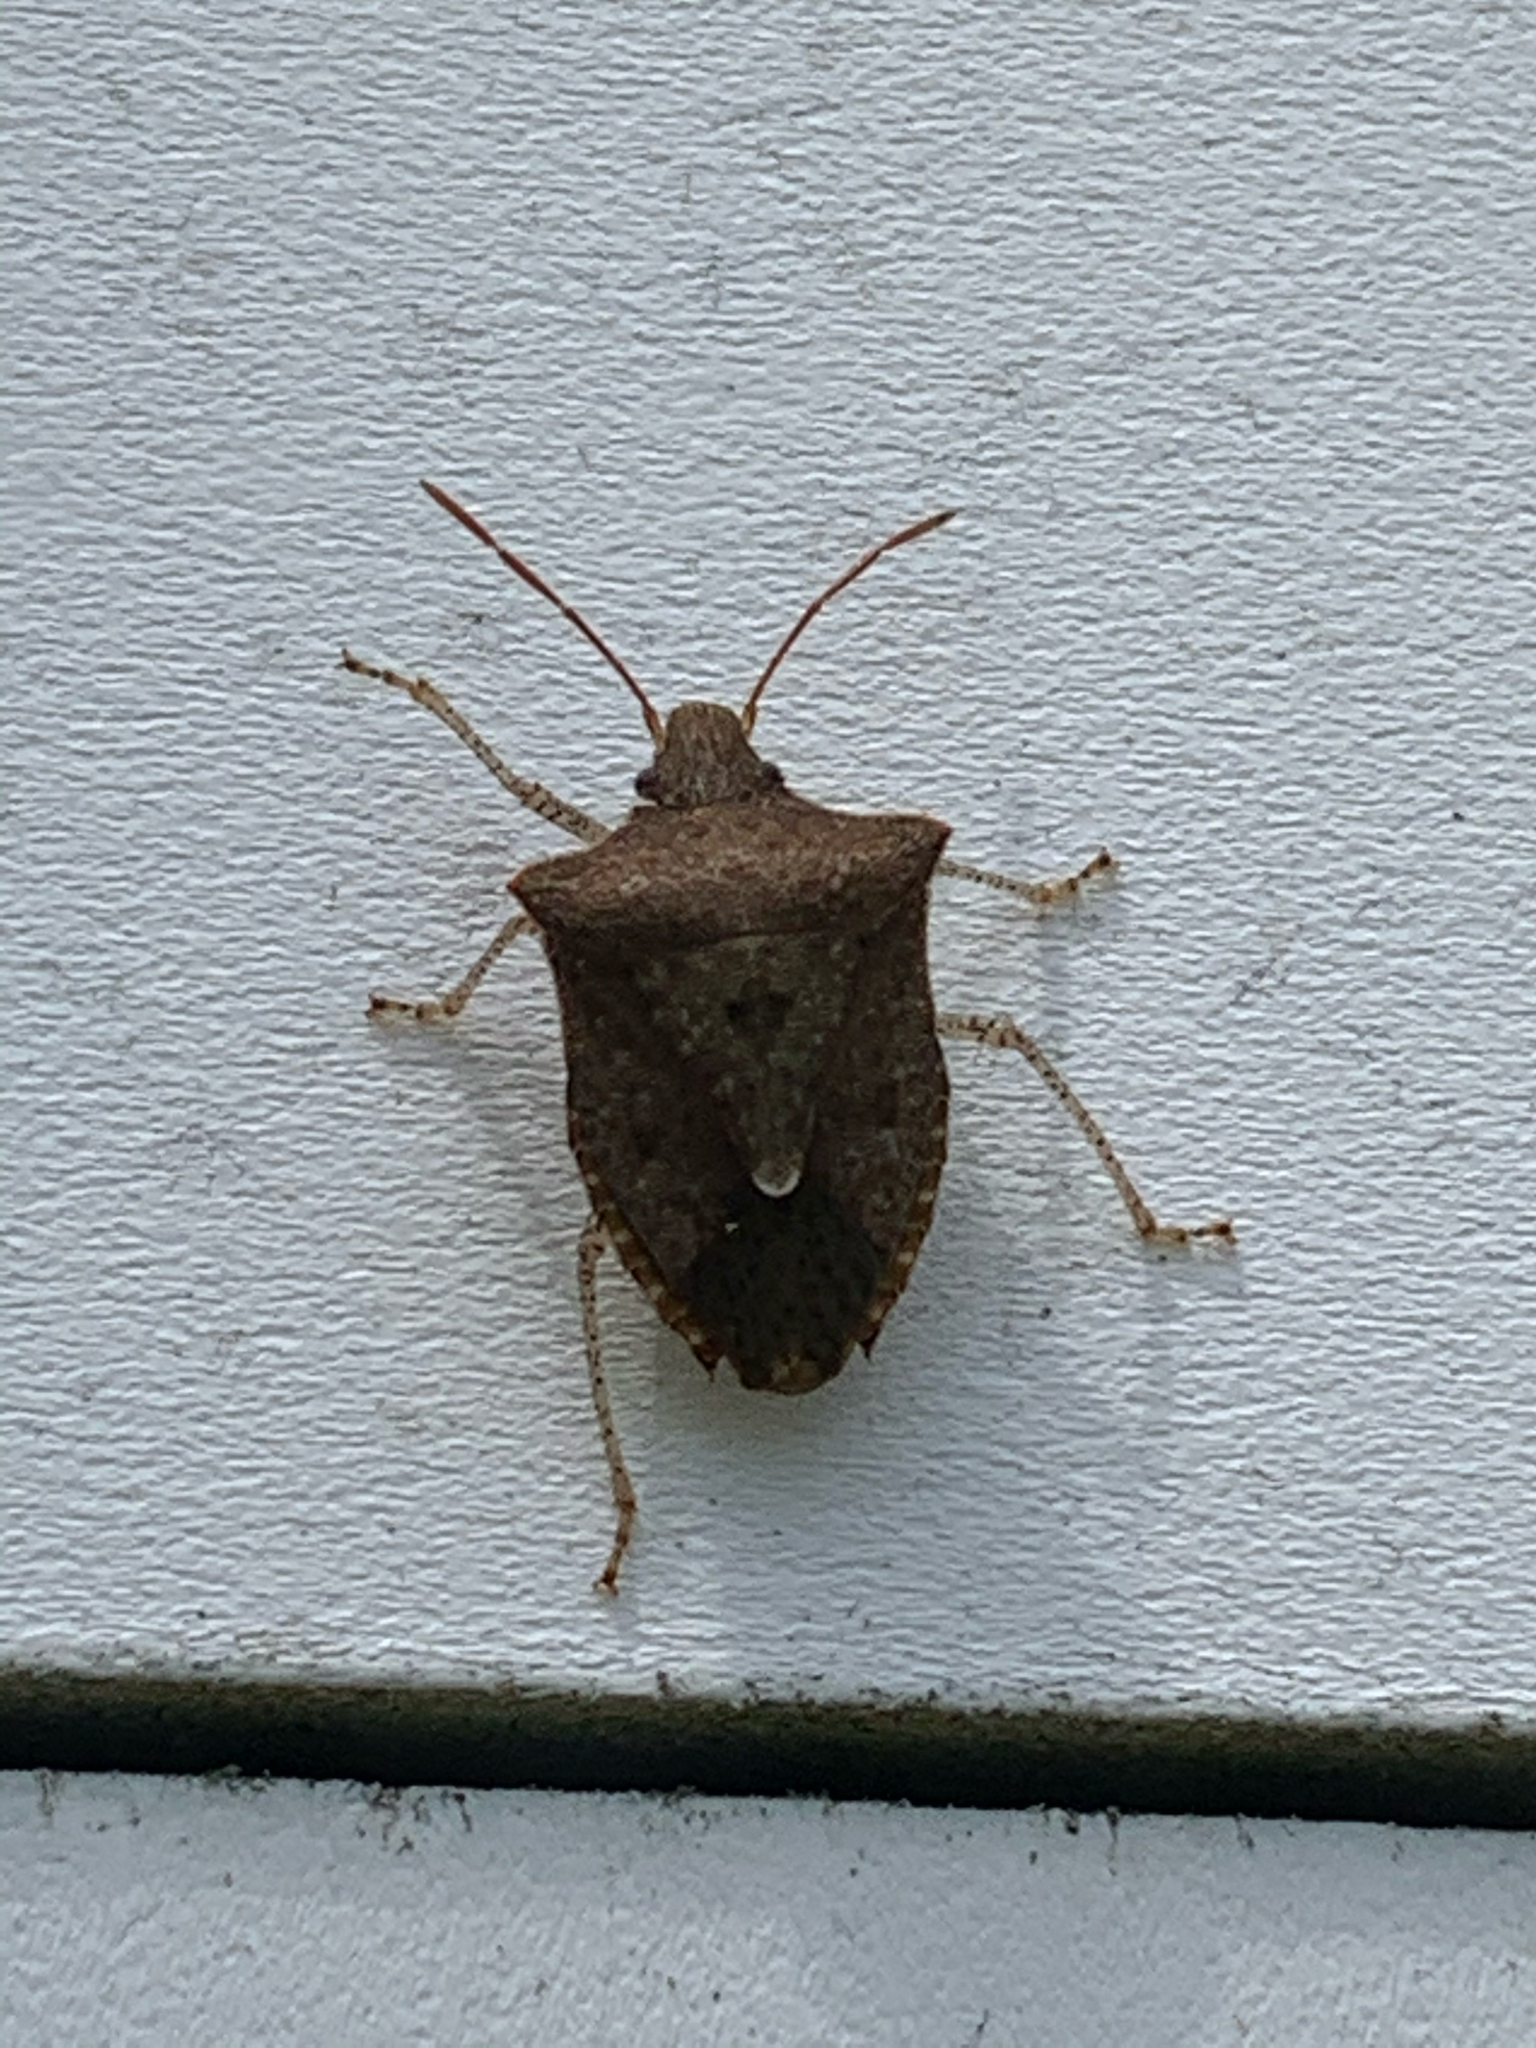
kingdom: Animalia
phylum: Arthropoda
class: Insecta
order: Hemiptera
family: Pentatomidae
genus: Euschistus
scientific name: Euschistus
